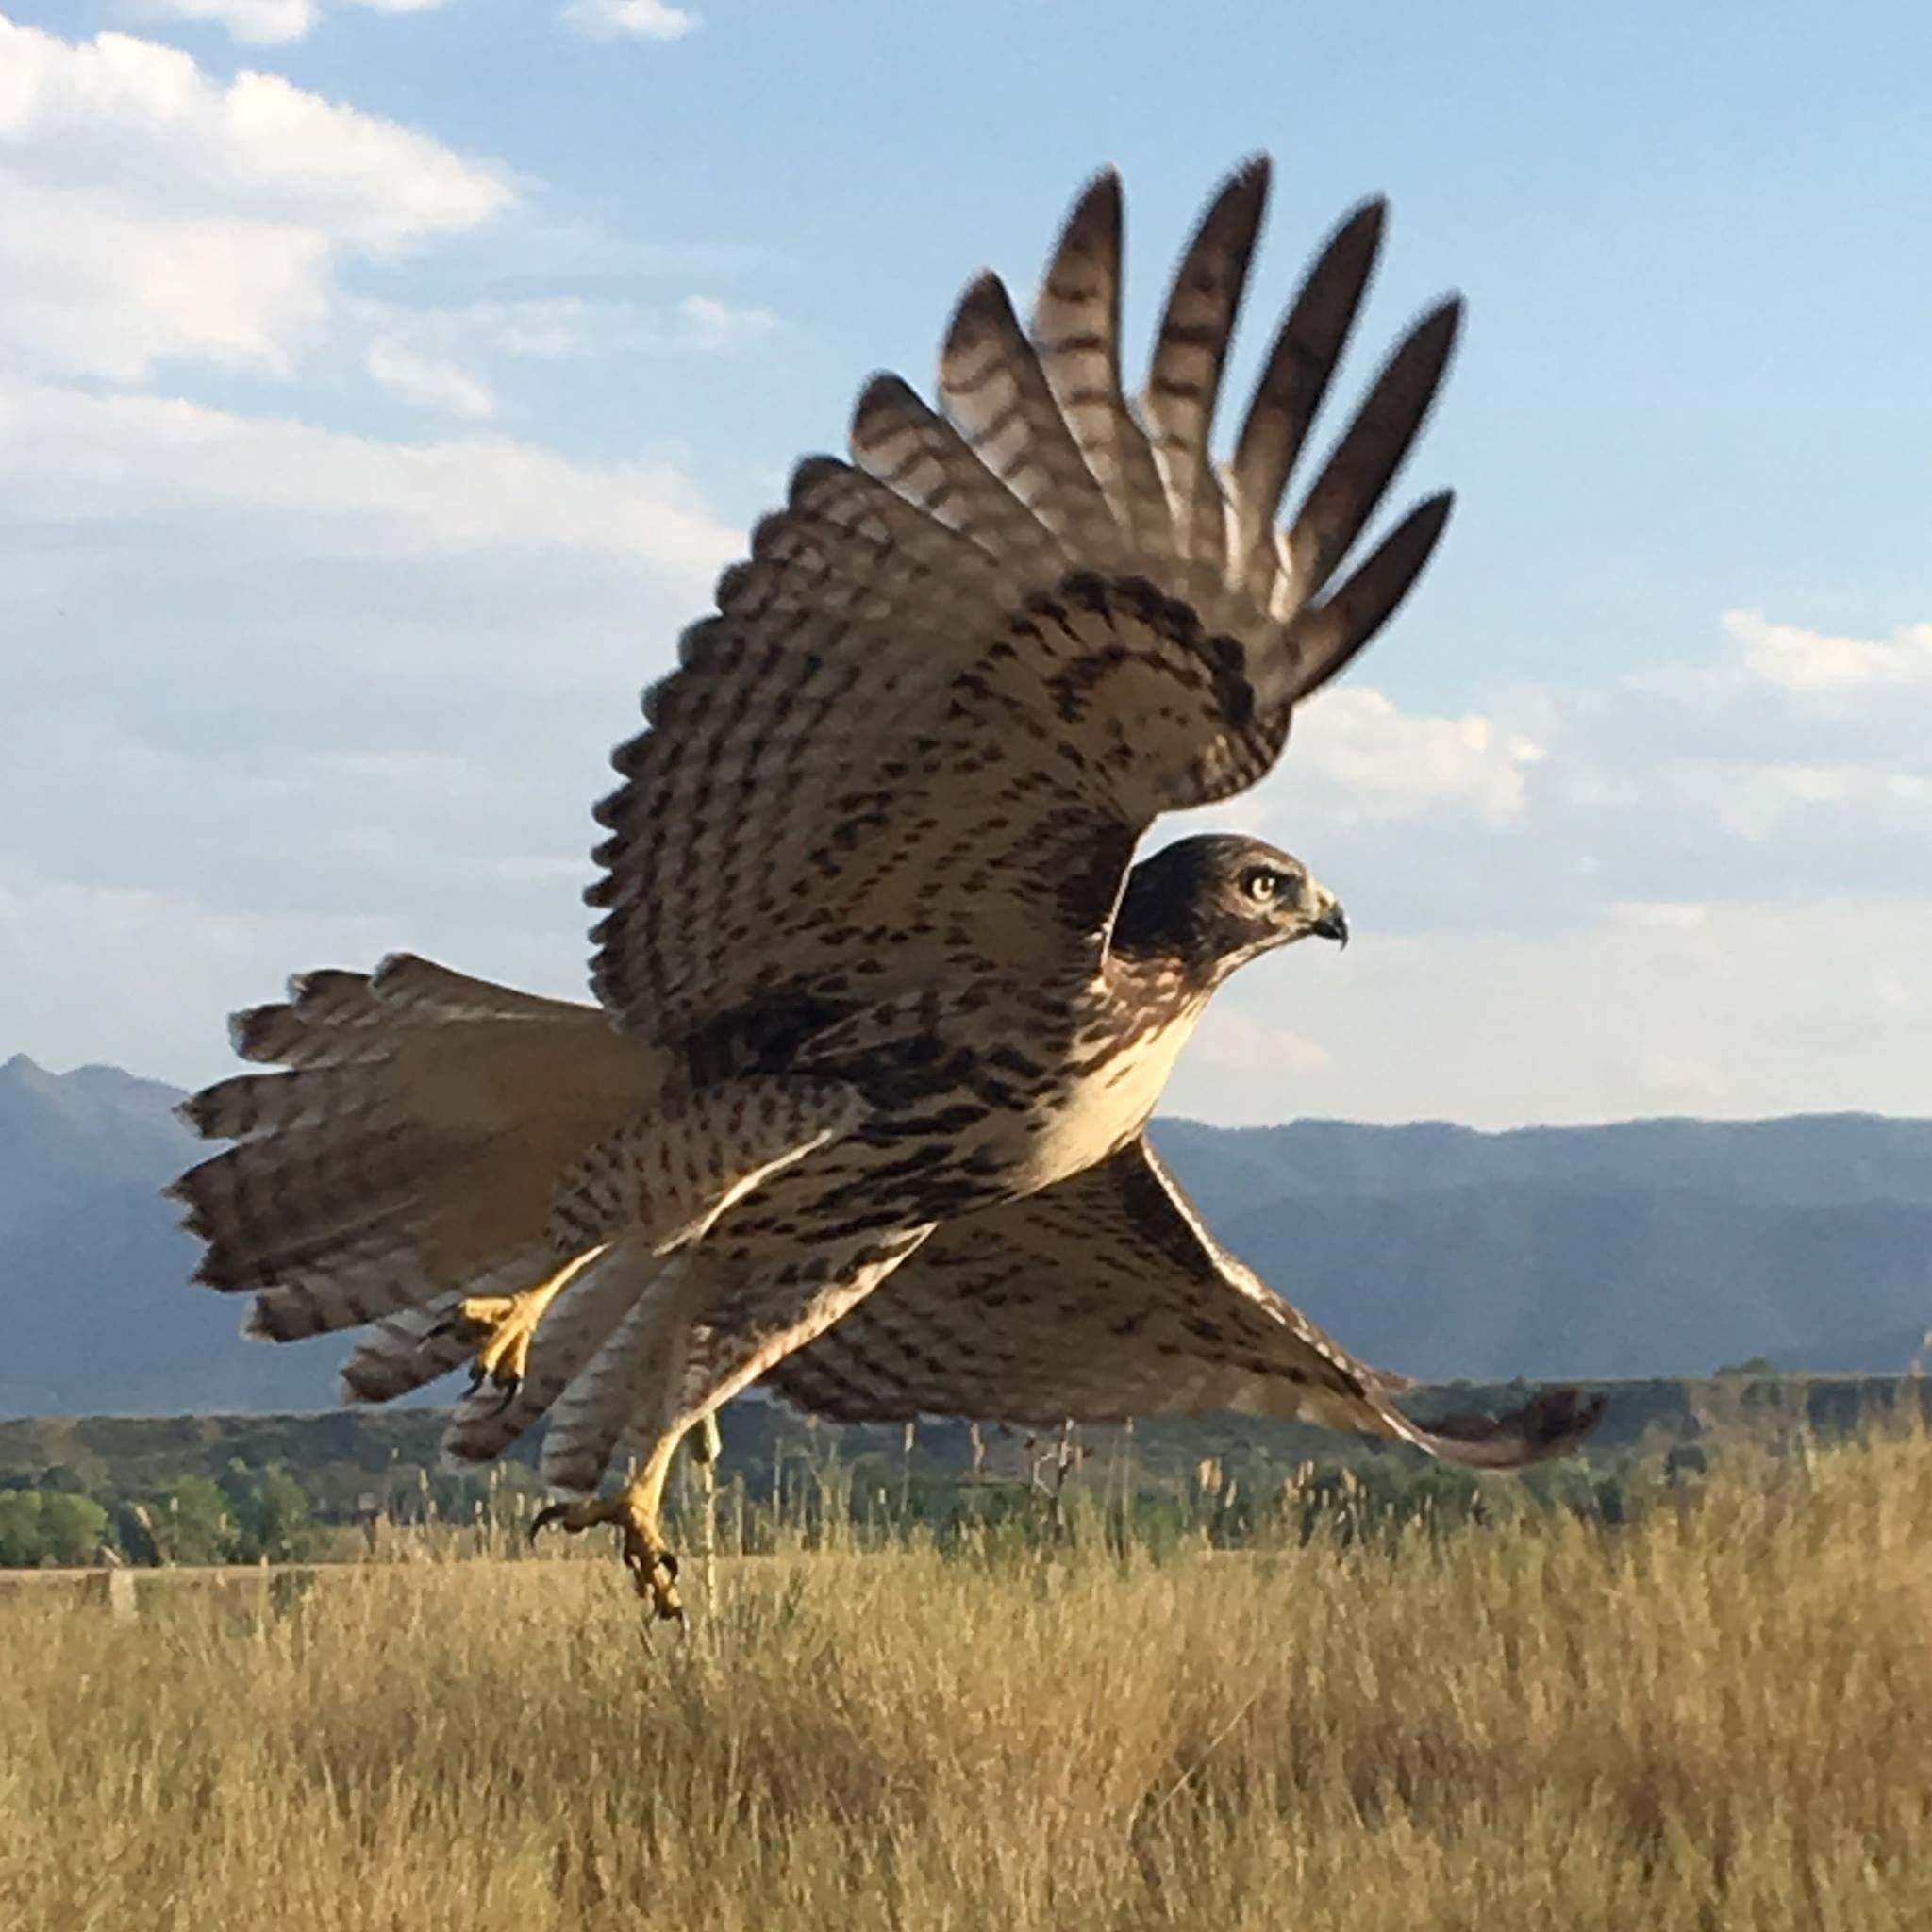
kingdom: Animalia
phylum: Chordata
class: Aves
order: Accipitriformes
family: Accipitridae
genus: Buteo
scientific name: Buteo jamaicensis
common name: Red-tailed hawk
